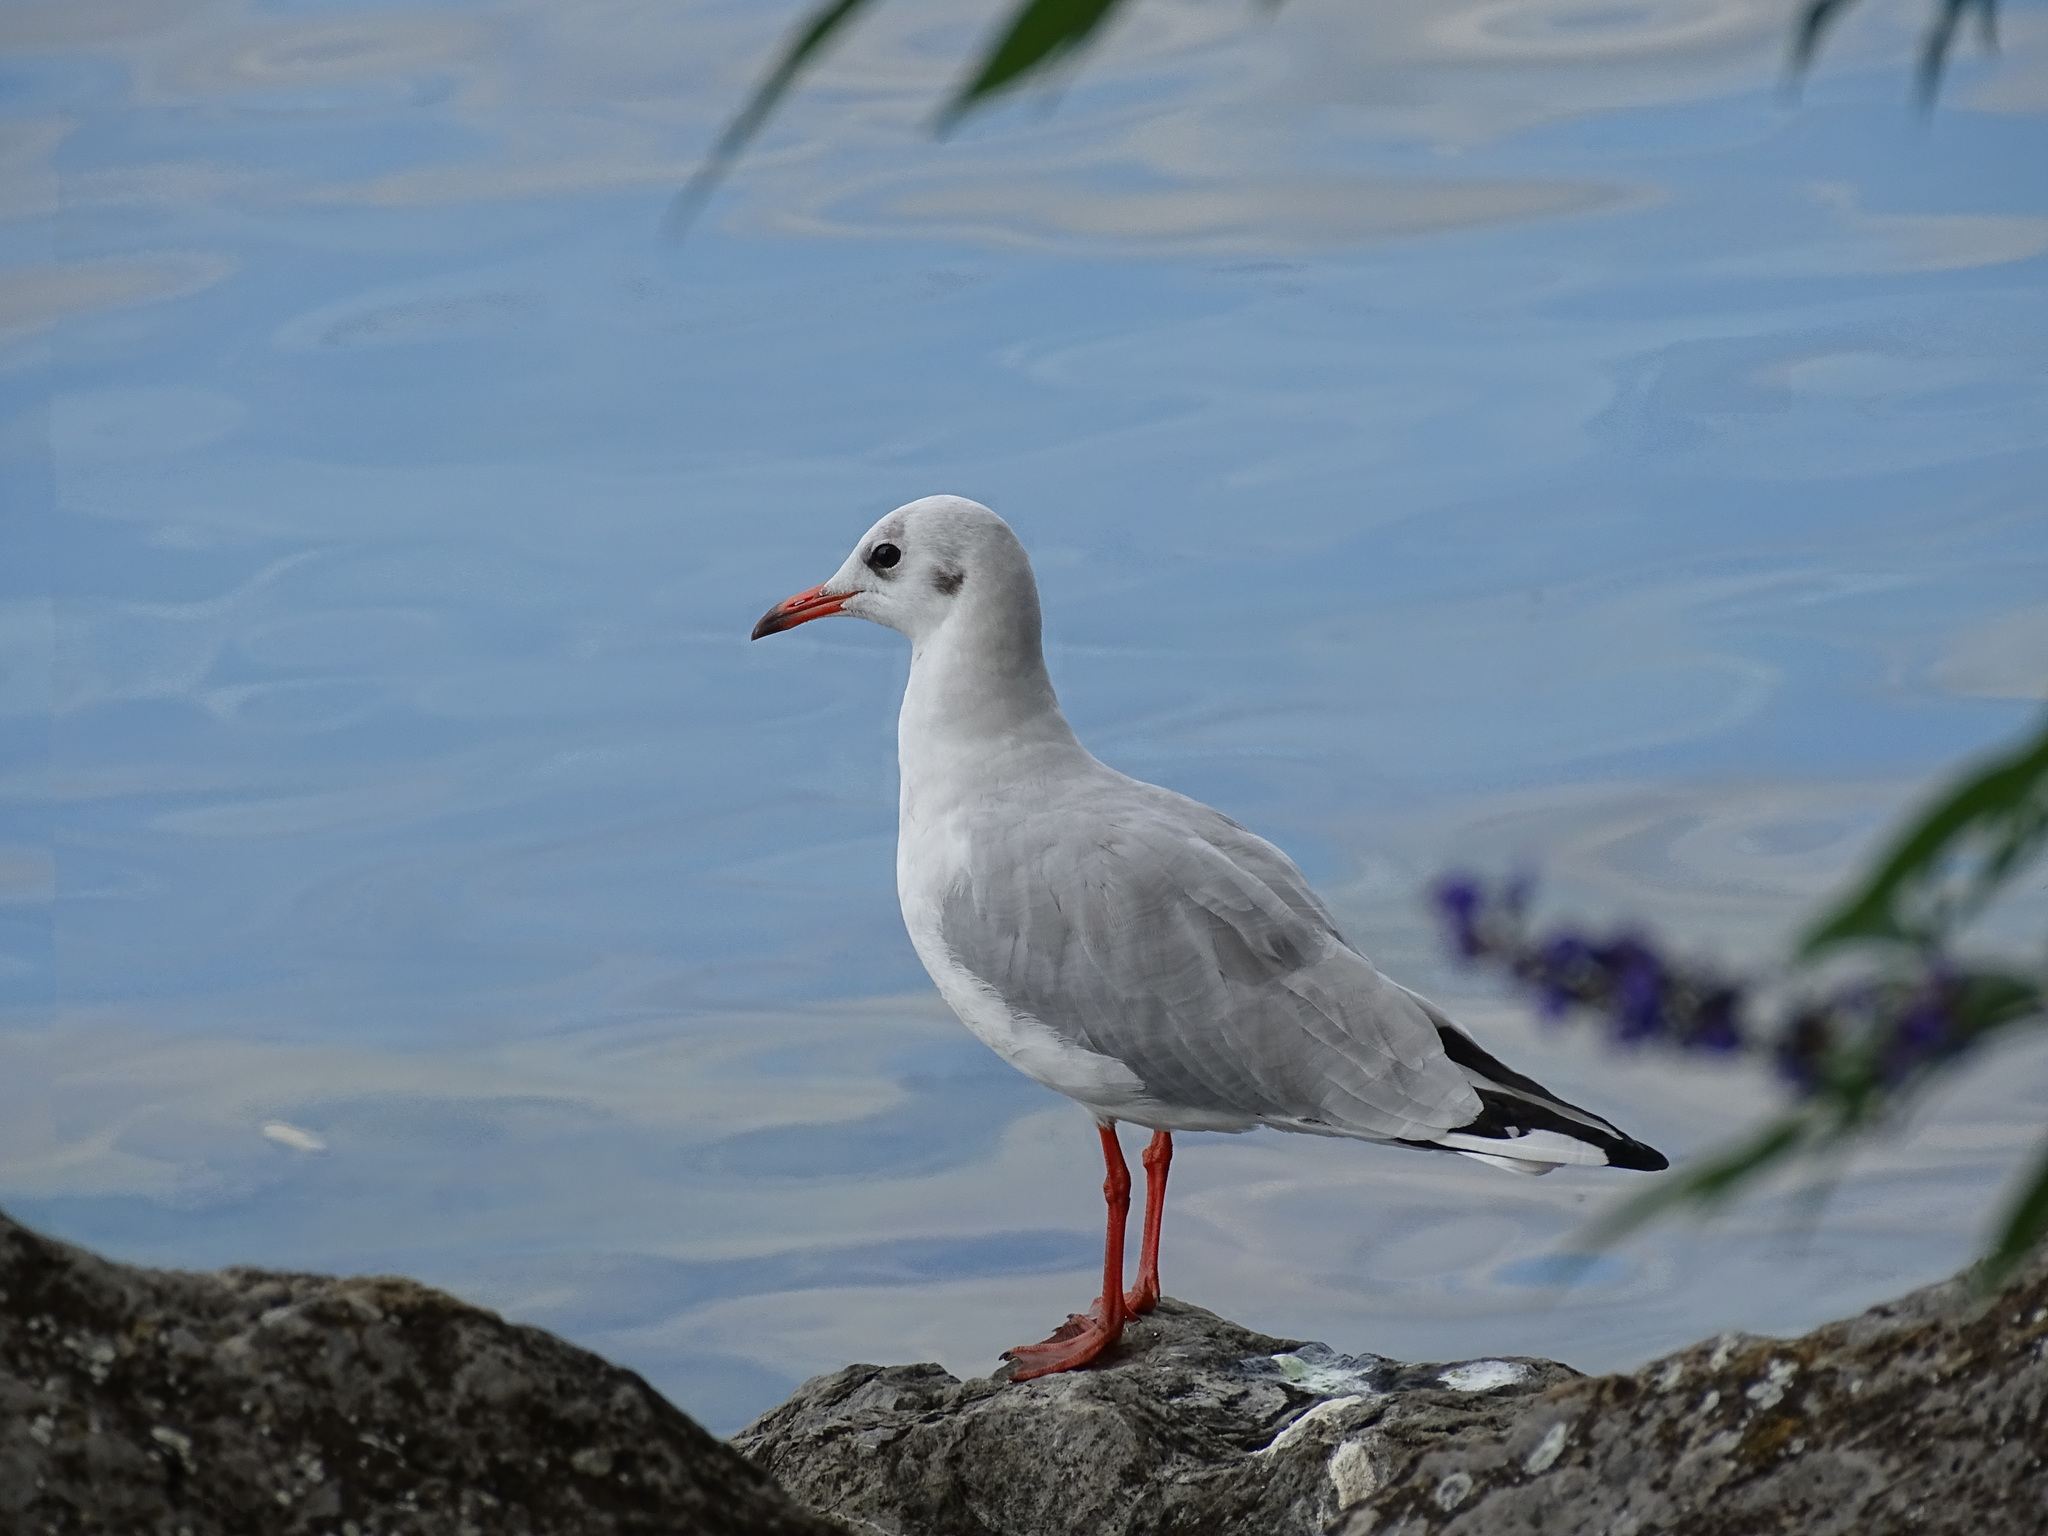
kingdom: Animalia
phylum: Chordata
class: Aves
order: Charadriiformes
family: Laridae
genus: Chroicocephalus
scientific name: Chroicocephalus ridibundus
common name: Black-headed gull
